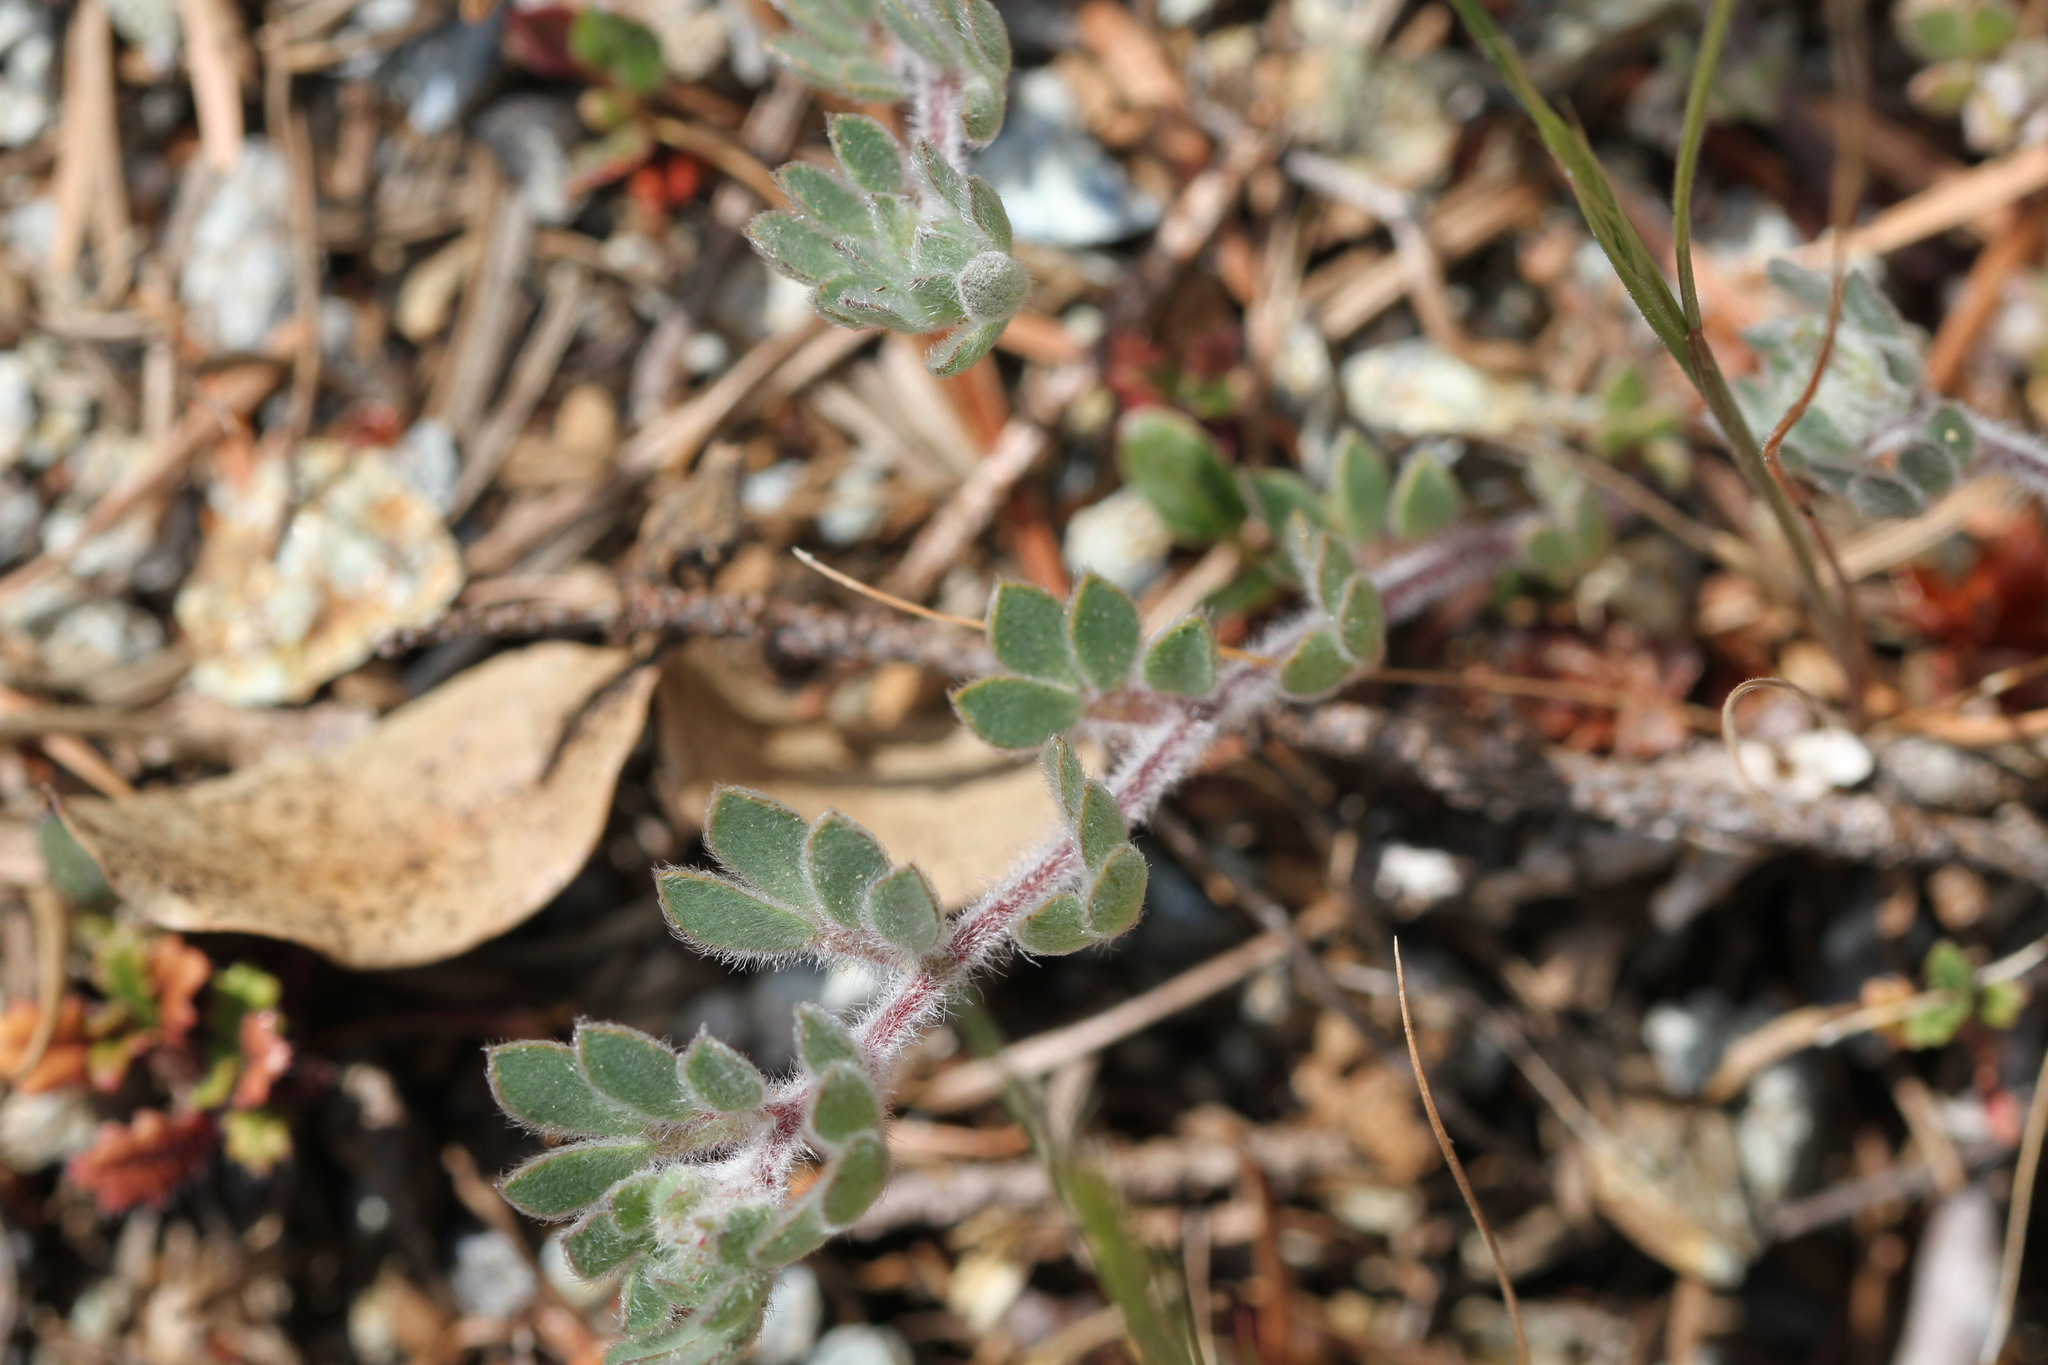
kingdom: Plantae
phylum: Tracheophyta
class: Magnoliopsida
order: Fabales
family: Fabaceae
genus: Acmispon
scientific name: Acmispon brachycarpus
